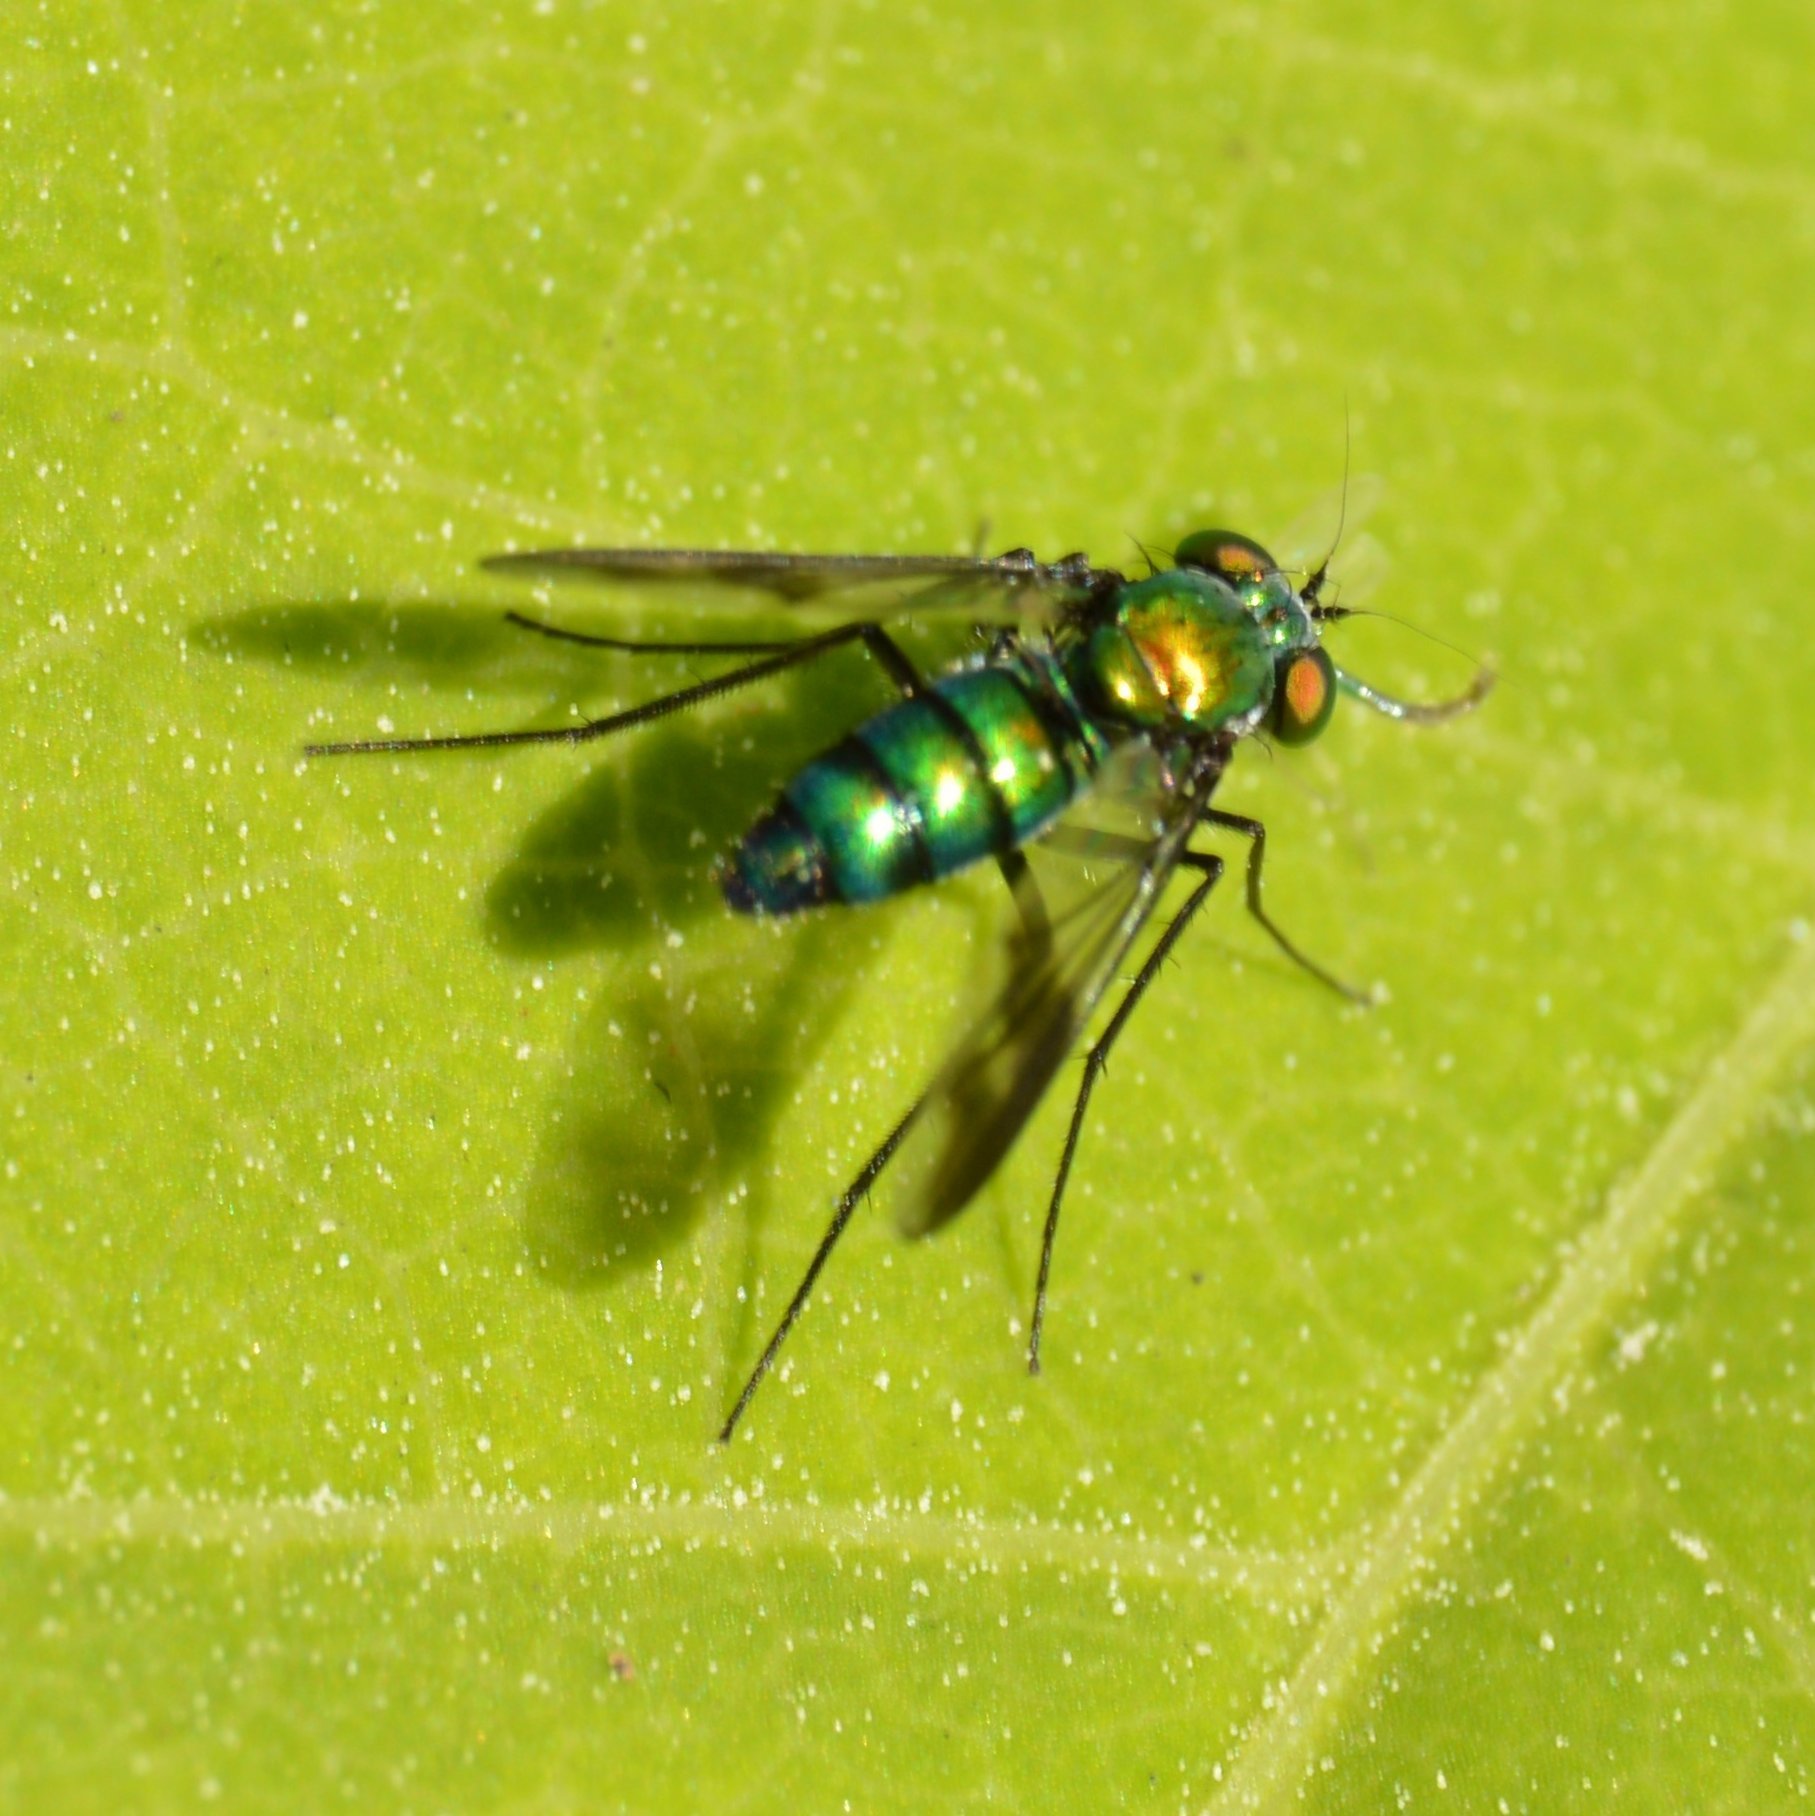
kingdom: Animalia
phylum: Arthropoda
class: Insecta
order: Diptera
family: Dolichopodidae
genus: Condylostylus
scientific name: Condylostylus patibulatus
